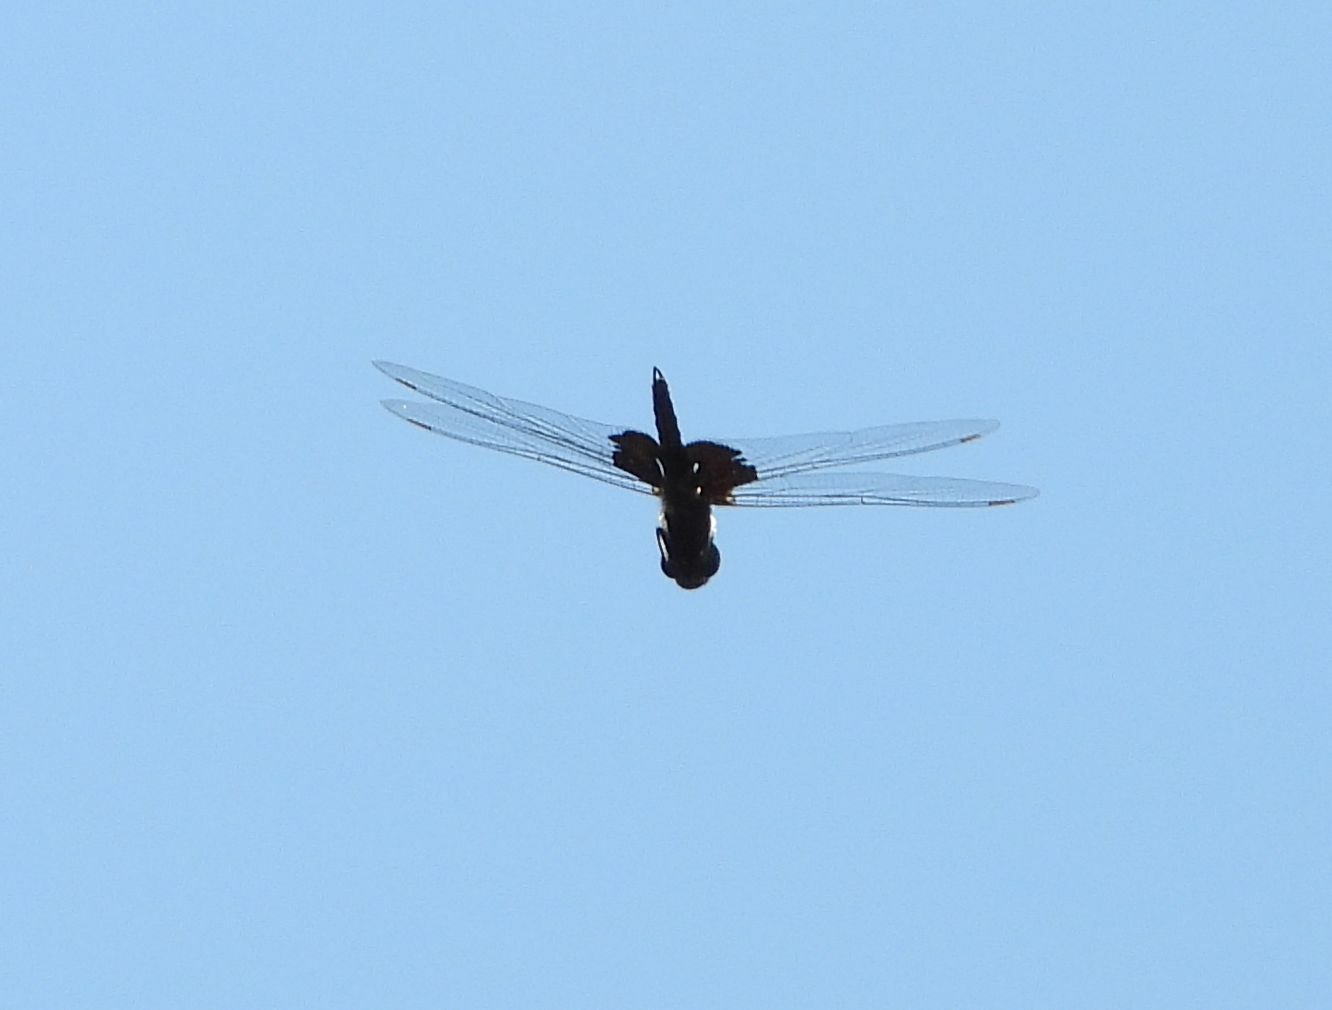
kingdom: Animalia
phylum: Arthropoda
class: Insecta
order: Odonata
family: Libellulidae
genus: Tramea
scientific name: Tramea lacerata
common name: Black saddlebags
